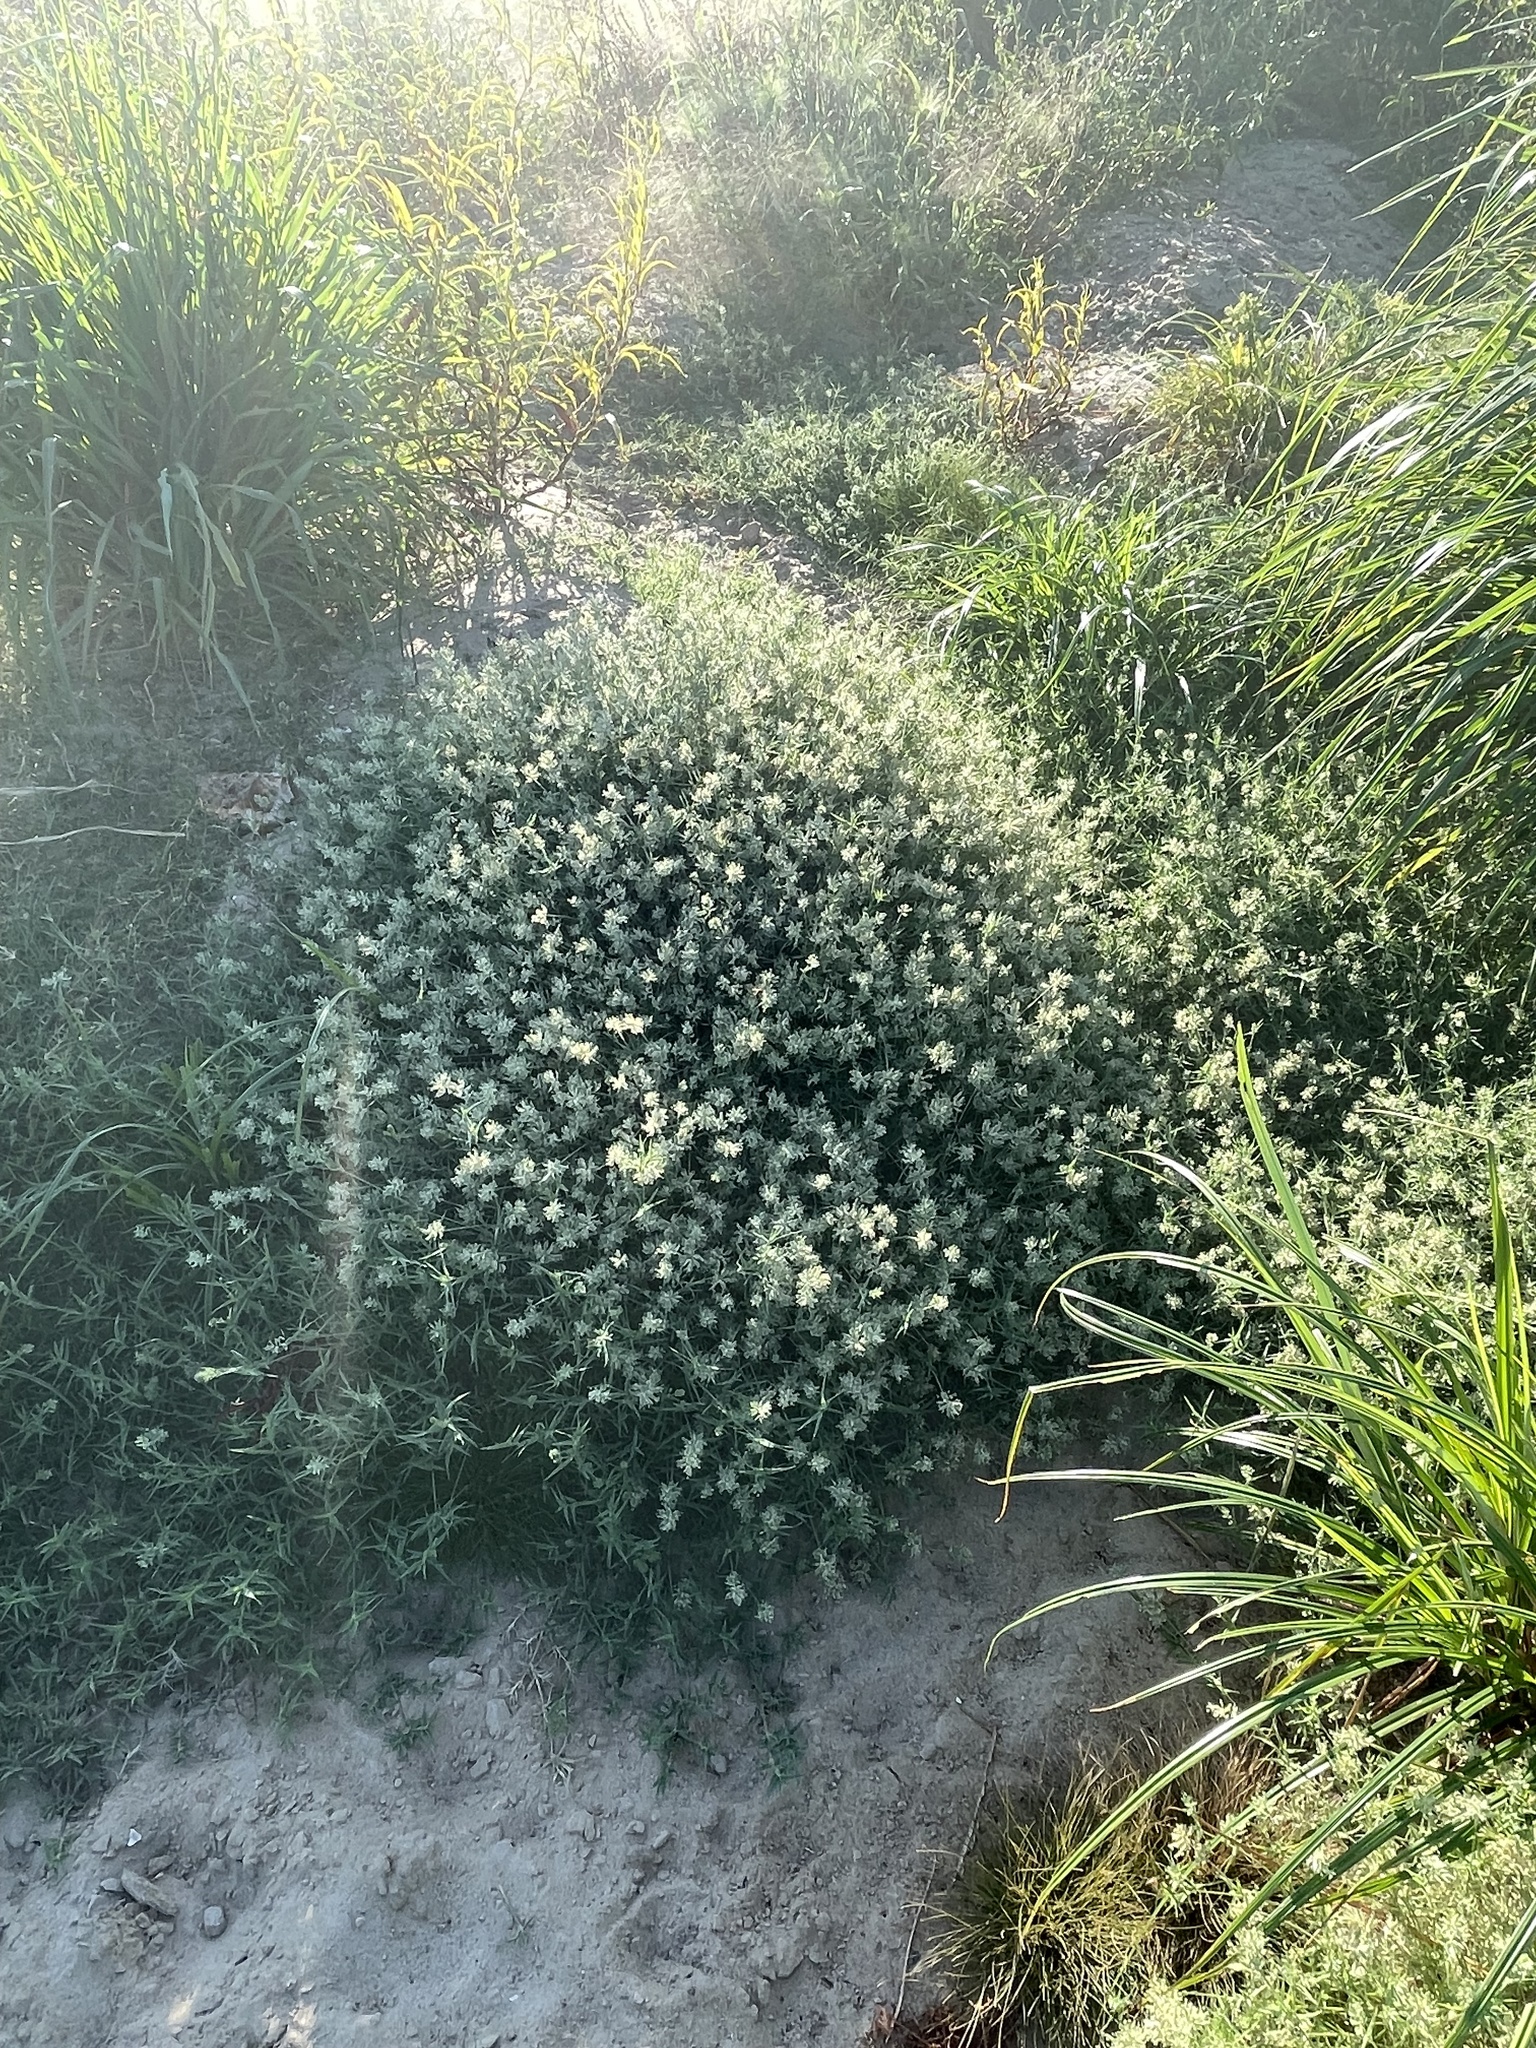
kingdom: Plantae
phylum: Tracheophyta
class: Liliopsida
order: Poales
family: Poaceae
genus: Eragrostis
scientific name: Eragrostis reptans
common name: Creeping love grass
